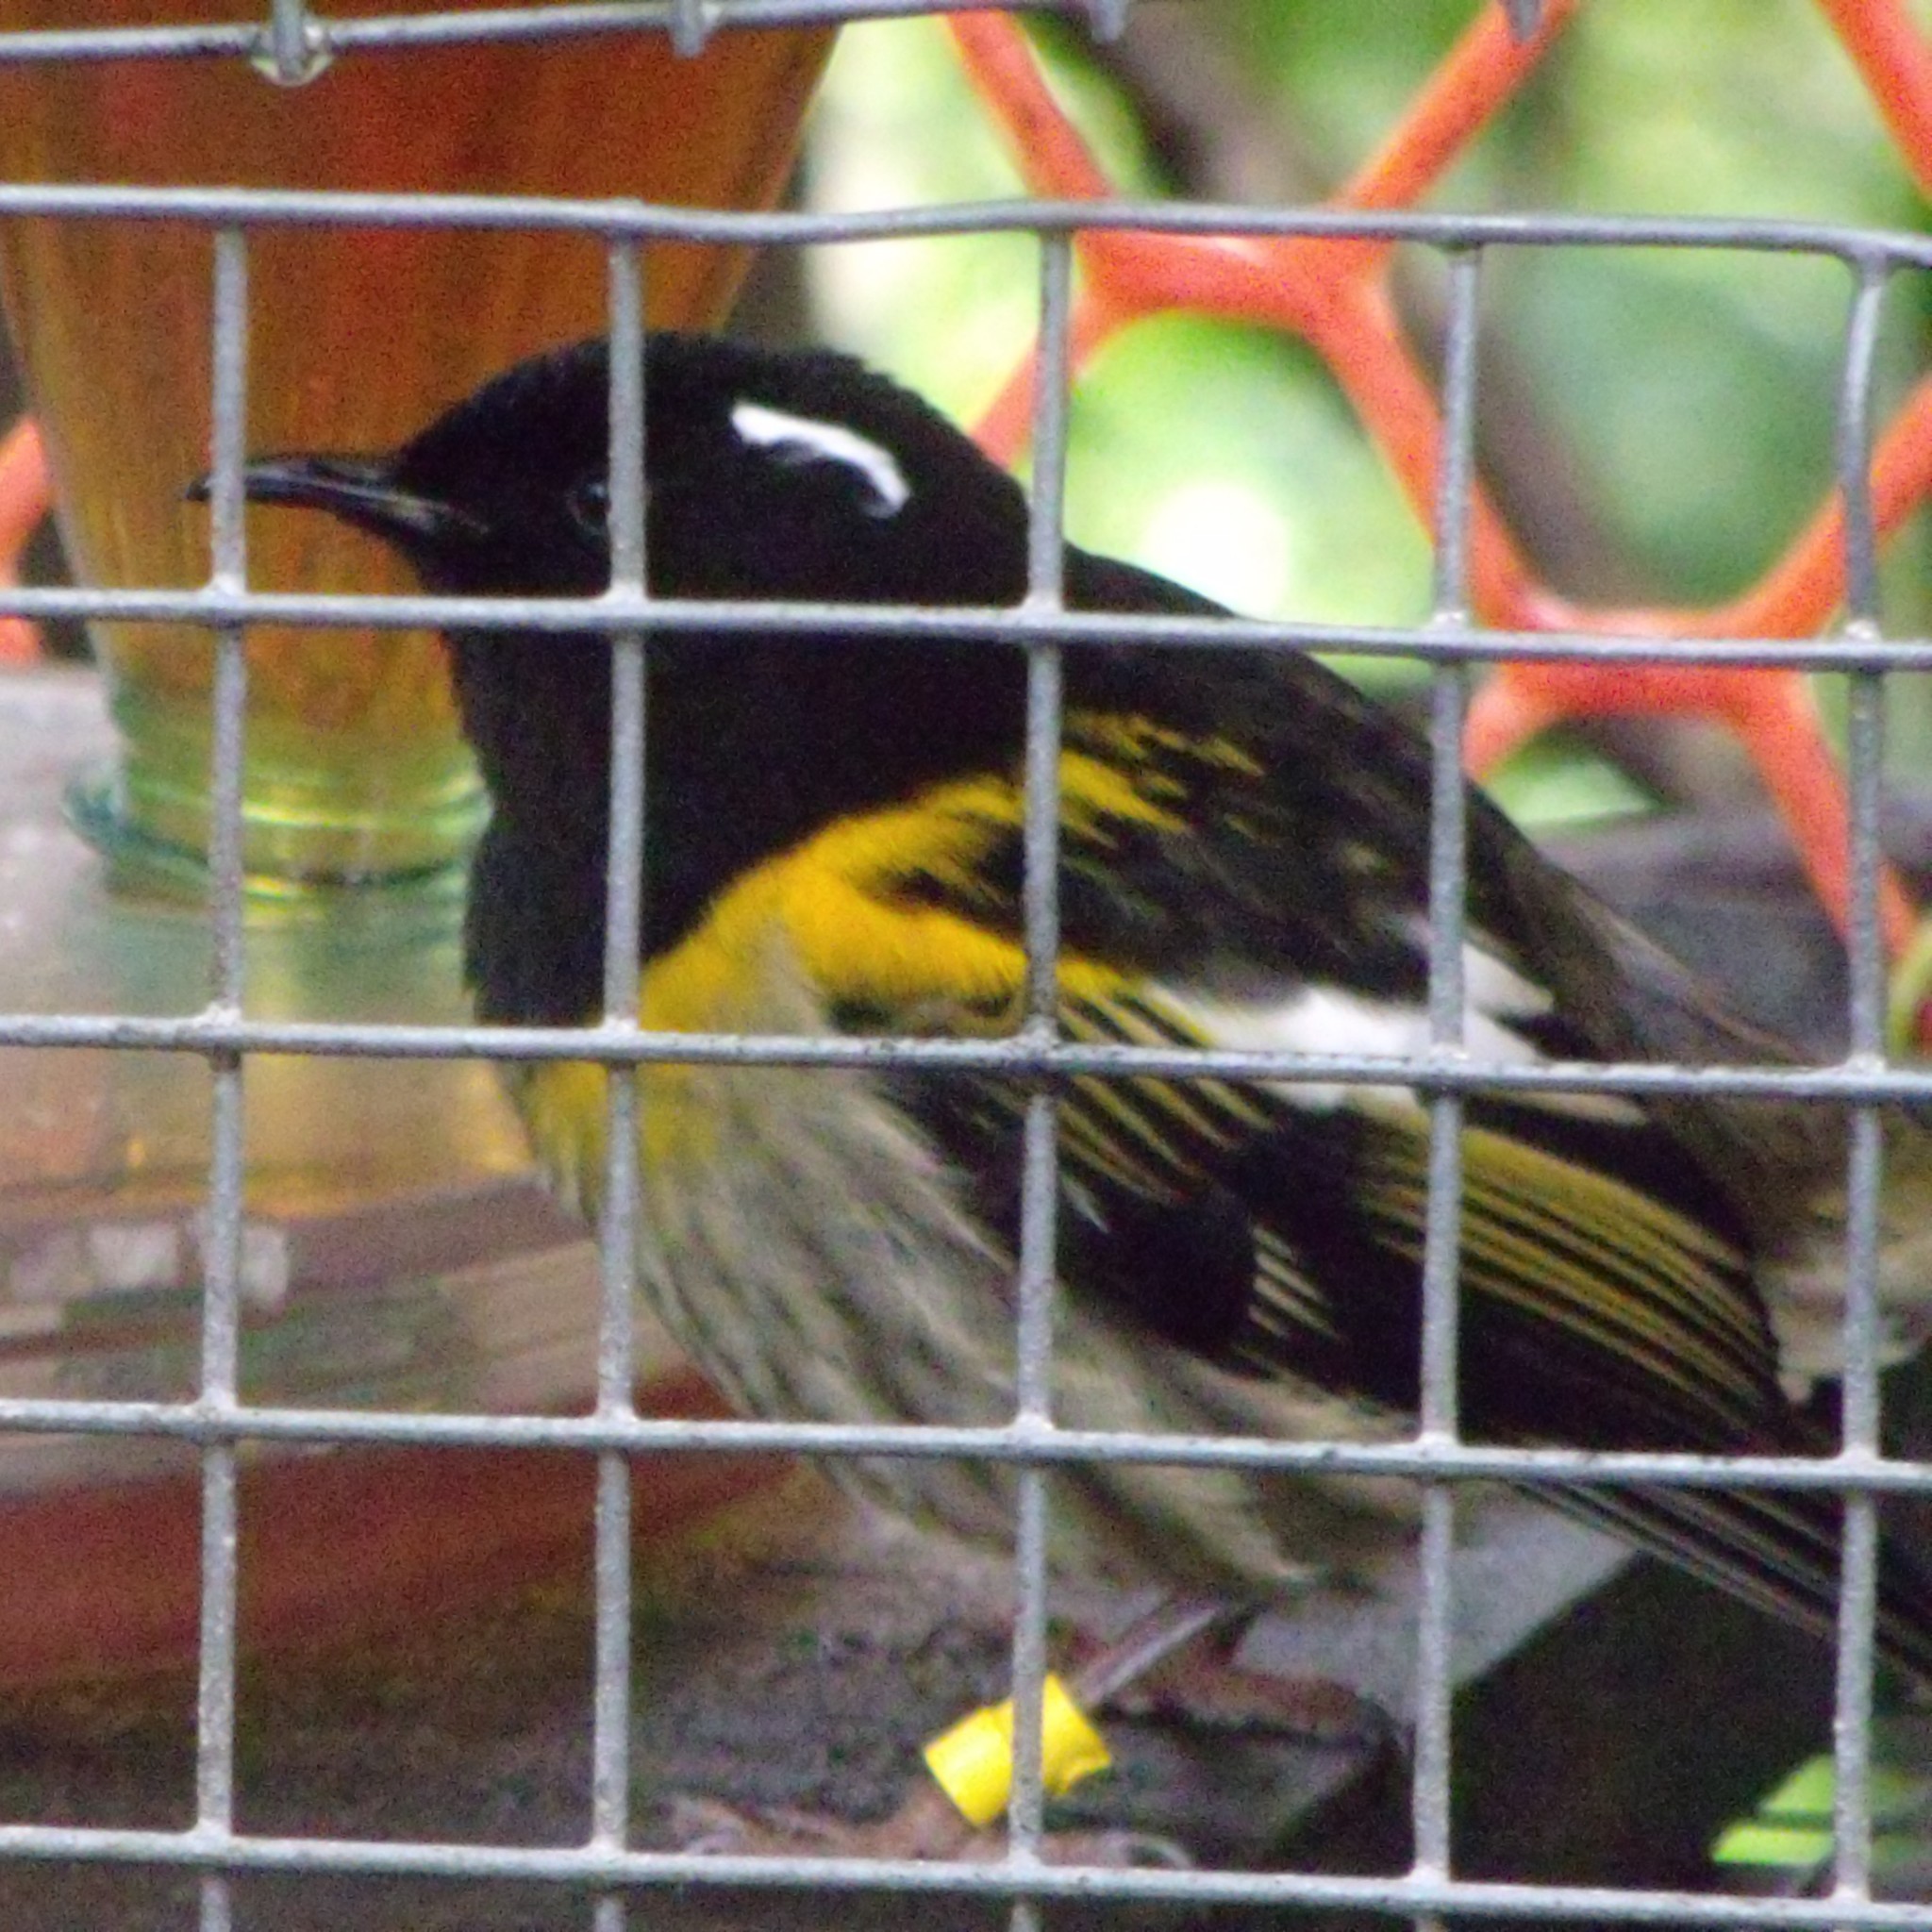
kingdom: Animalia
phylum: Chordata
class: Aves
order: Passeriformes
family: Notiomystidae
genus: Notiomystis
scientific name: Notiomystis cincta
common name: Stitchbird
